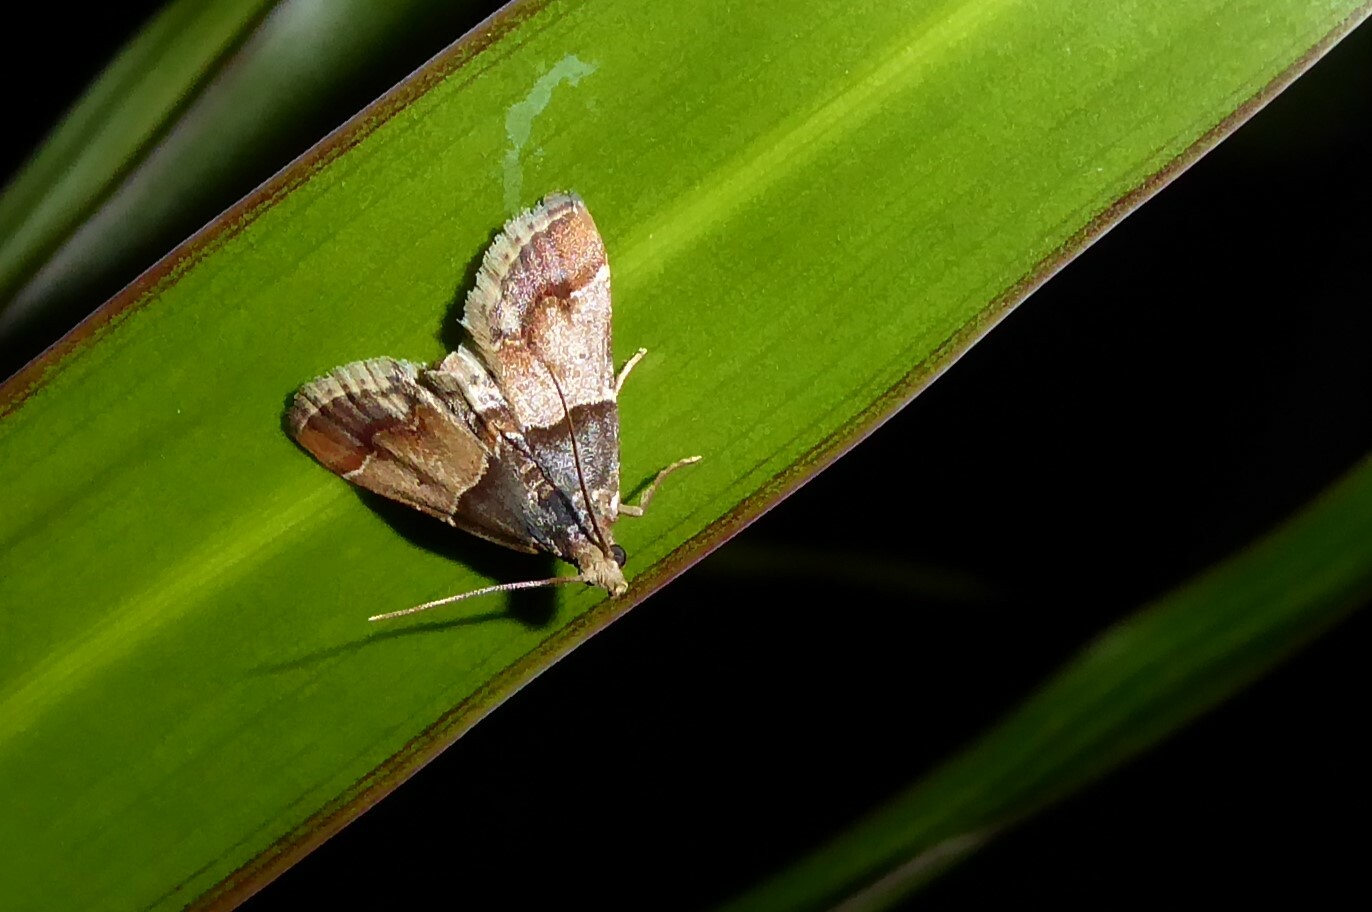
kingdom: Animalia
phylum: Arthropoda
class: Insecta
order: Lepidoptera
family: Pyralidae
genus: Pyralis
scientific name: Pyralis farinalis
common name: Meal moth
